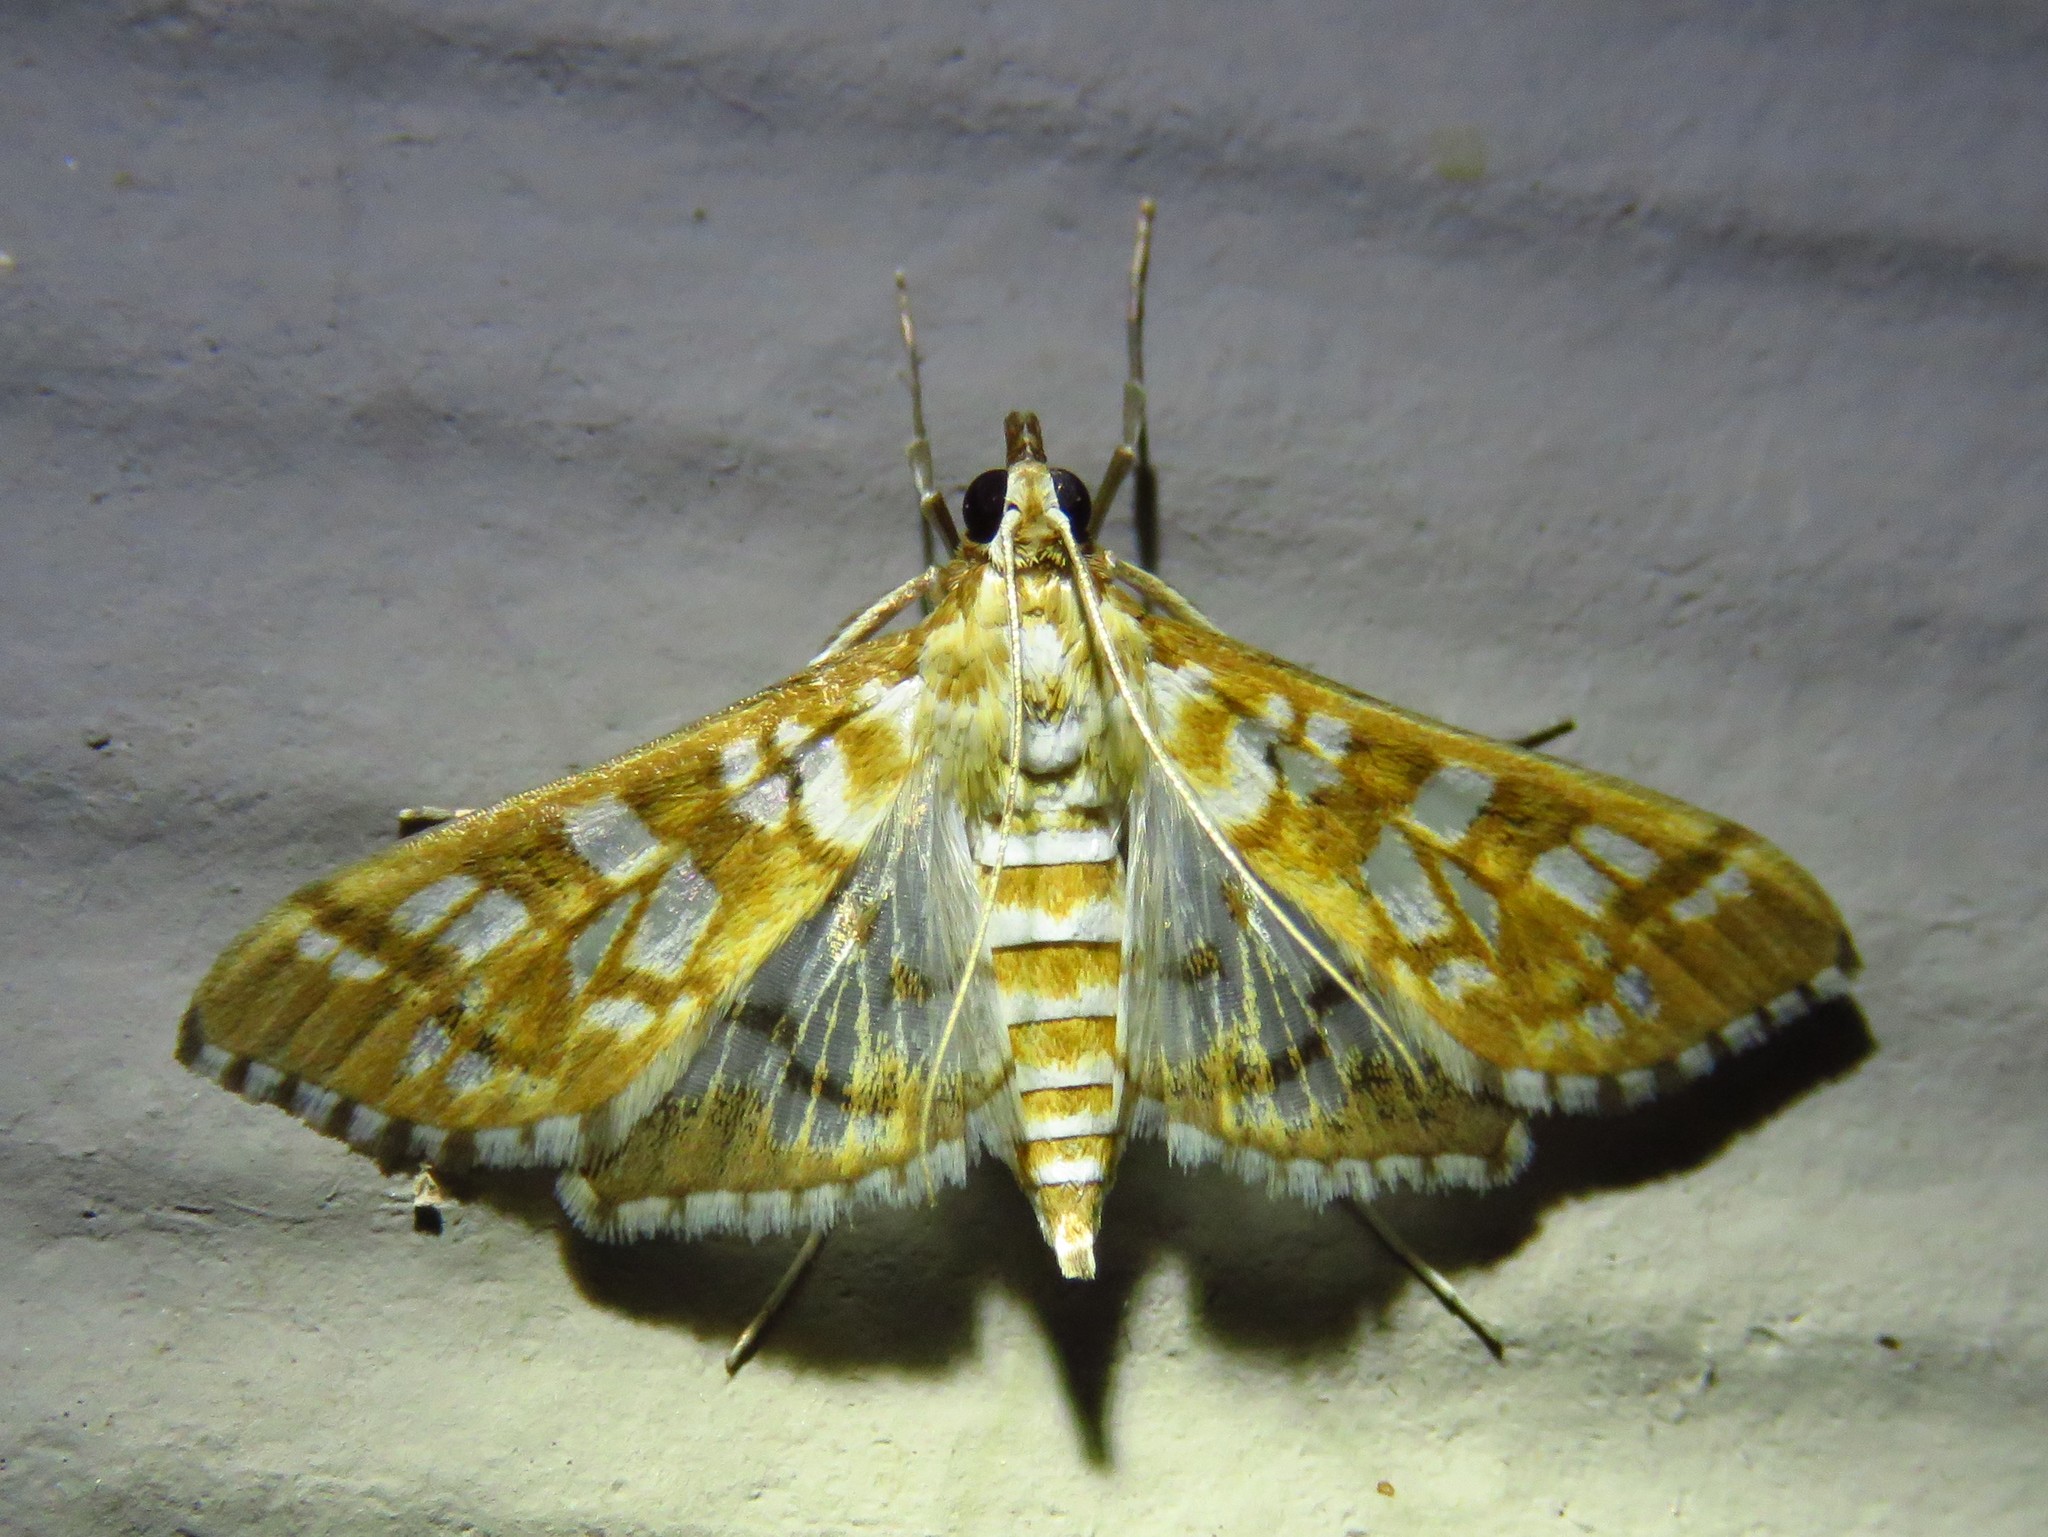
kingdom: Animalia
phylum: Arthropoda
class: Insecta
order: Lepidoptera
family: Crambidae
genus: Epipagis
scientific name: Epipagis fenestralis
